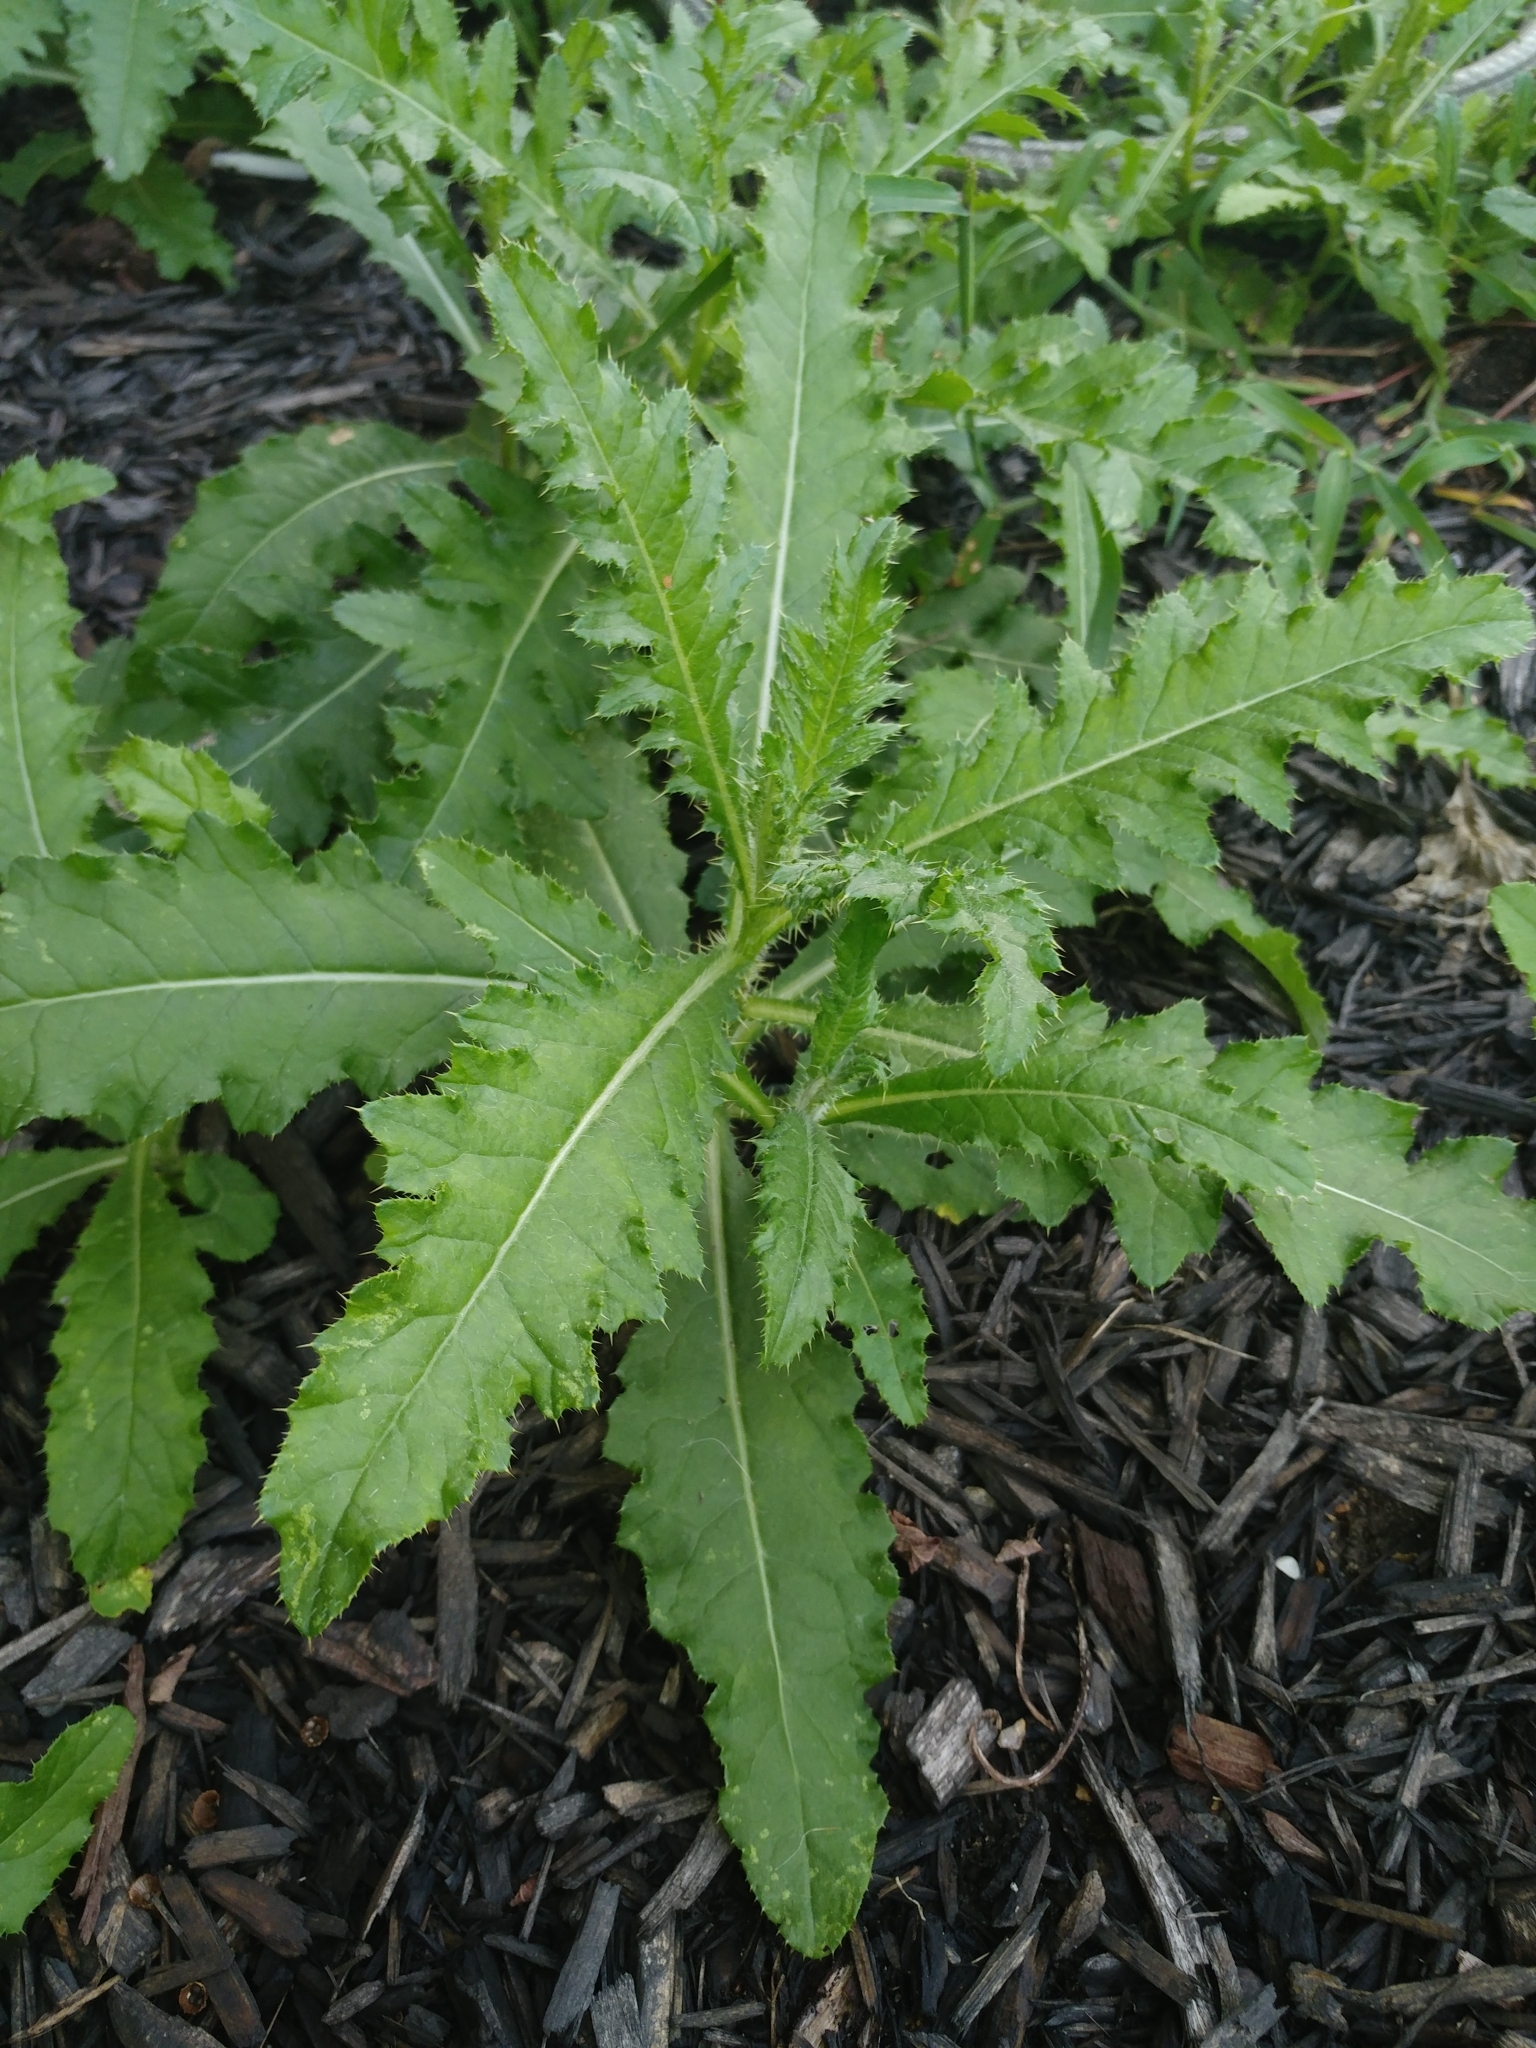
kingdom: Plantae
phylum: Tracheophyta
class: Magnoliopsida
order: Asterales
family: Asteraceae
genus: Cirsium
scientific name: Cirsium arvense
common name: Creeping thistle
